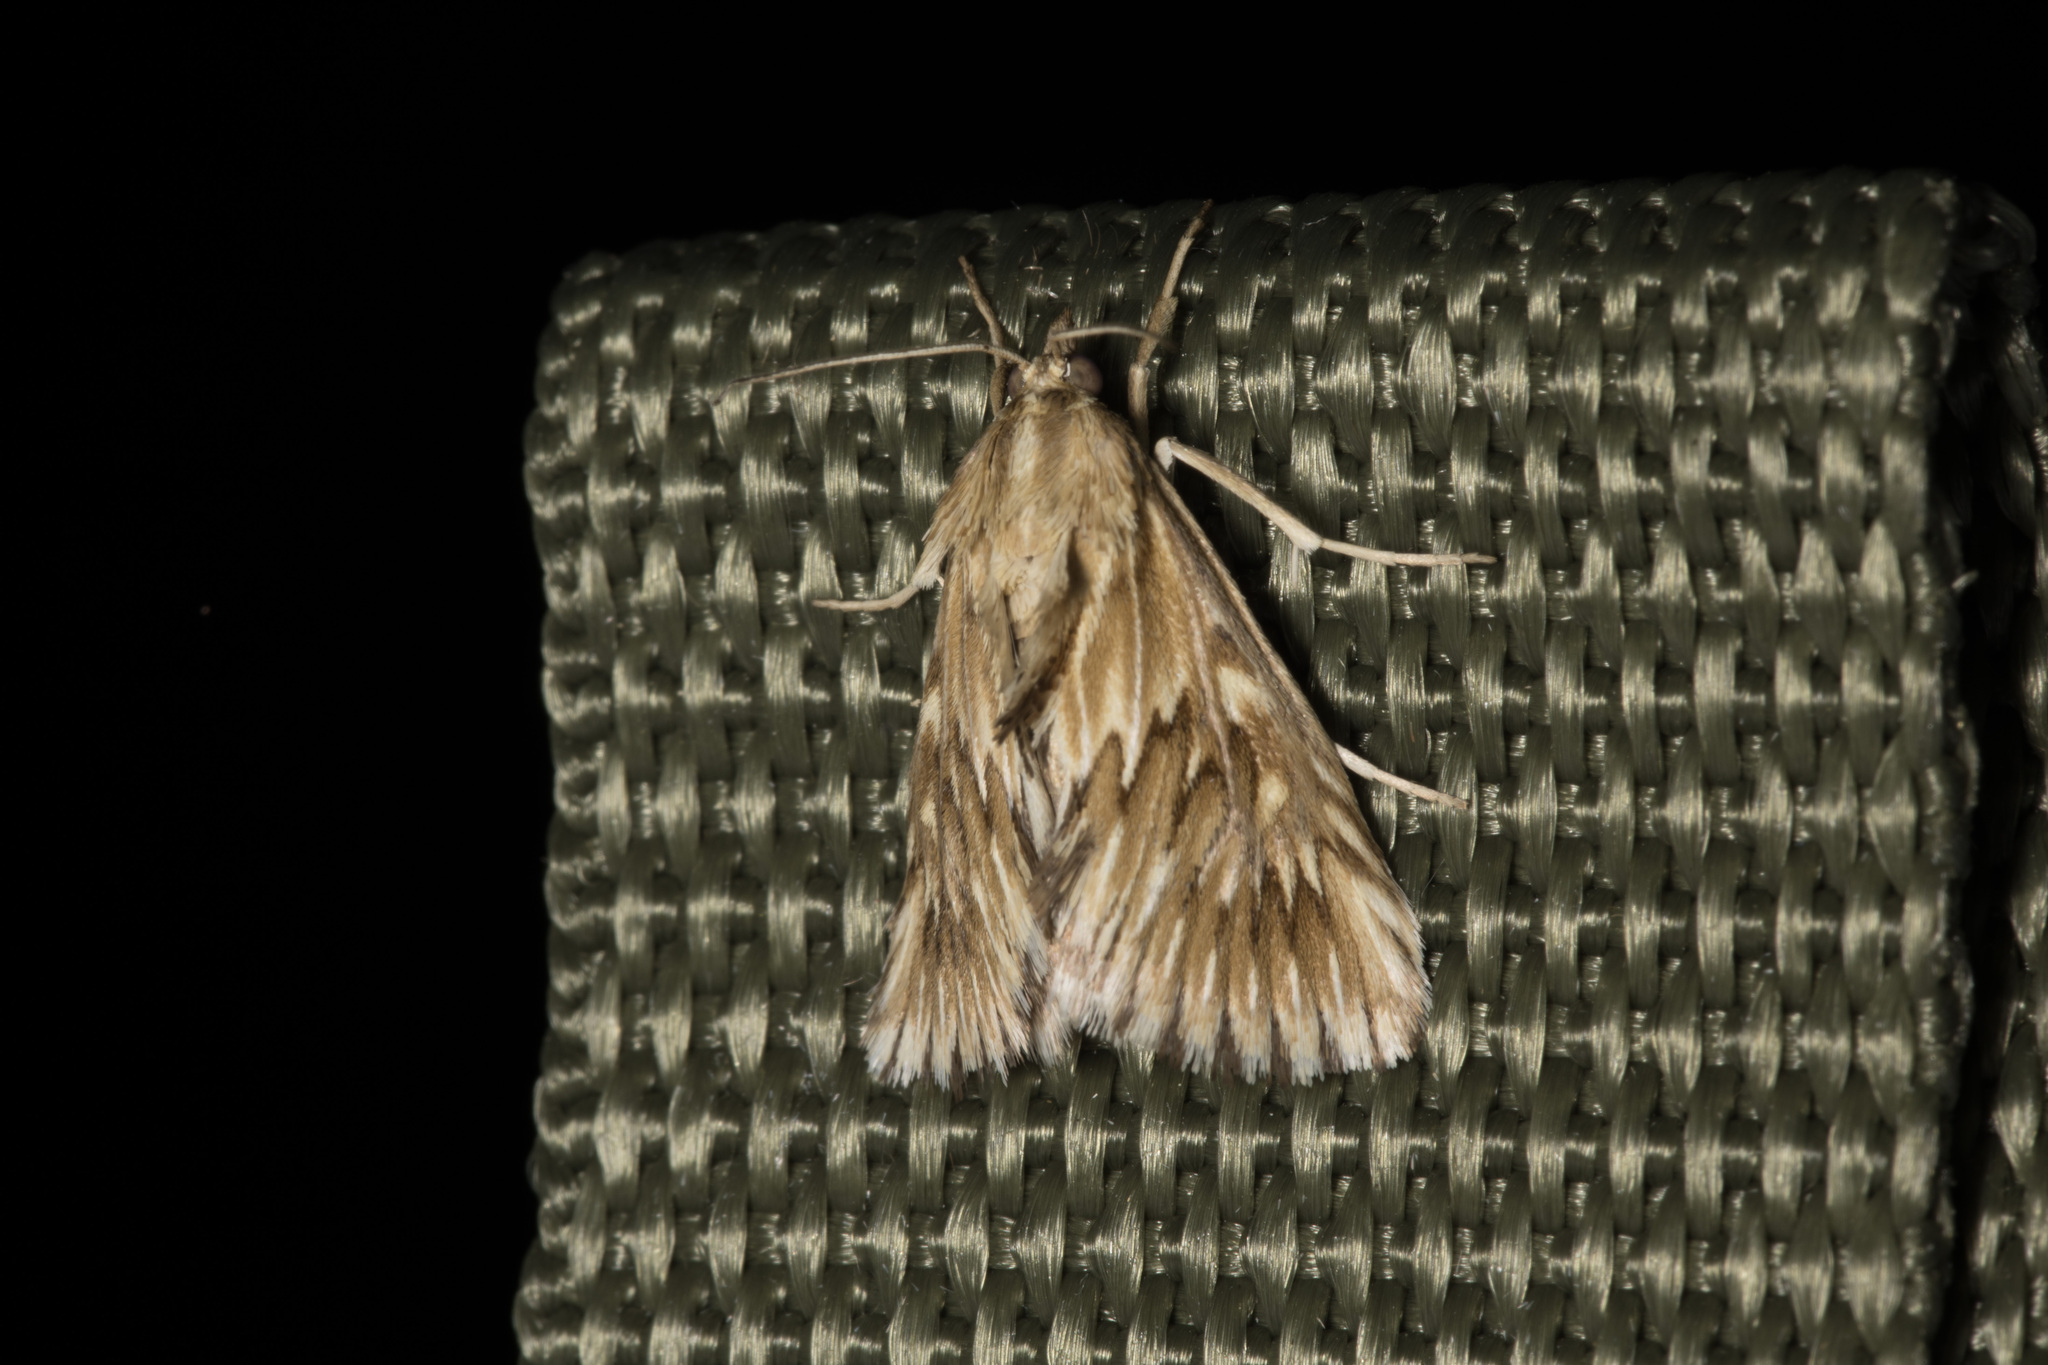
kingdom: Animalia
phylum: Arthropoda
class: Insecta
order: Lepidoptera
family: Crambidae
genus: Cynaeda
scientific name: Cynaeda dentalis
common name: Starry pearl
